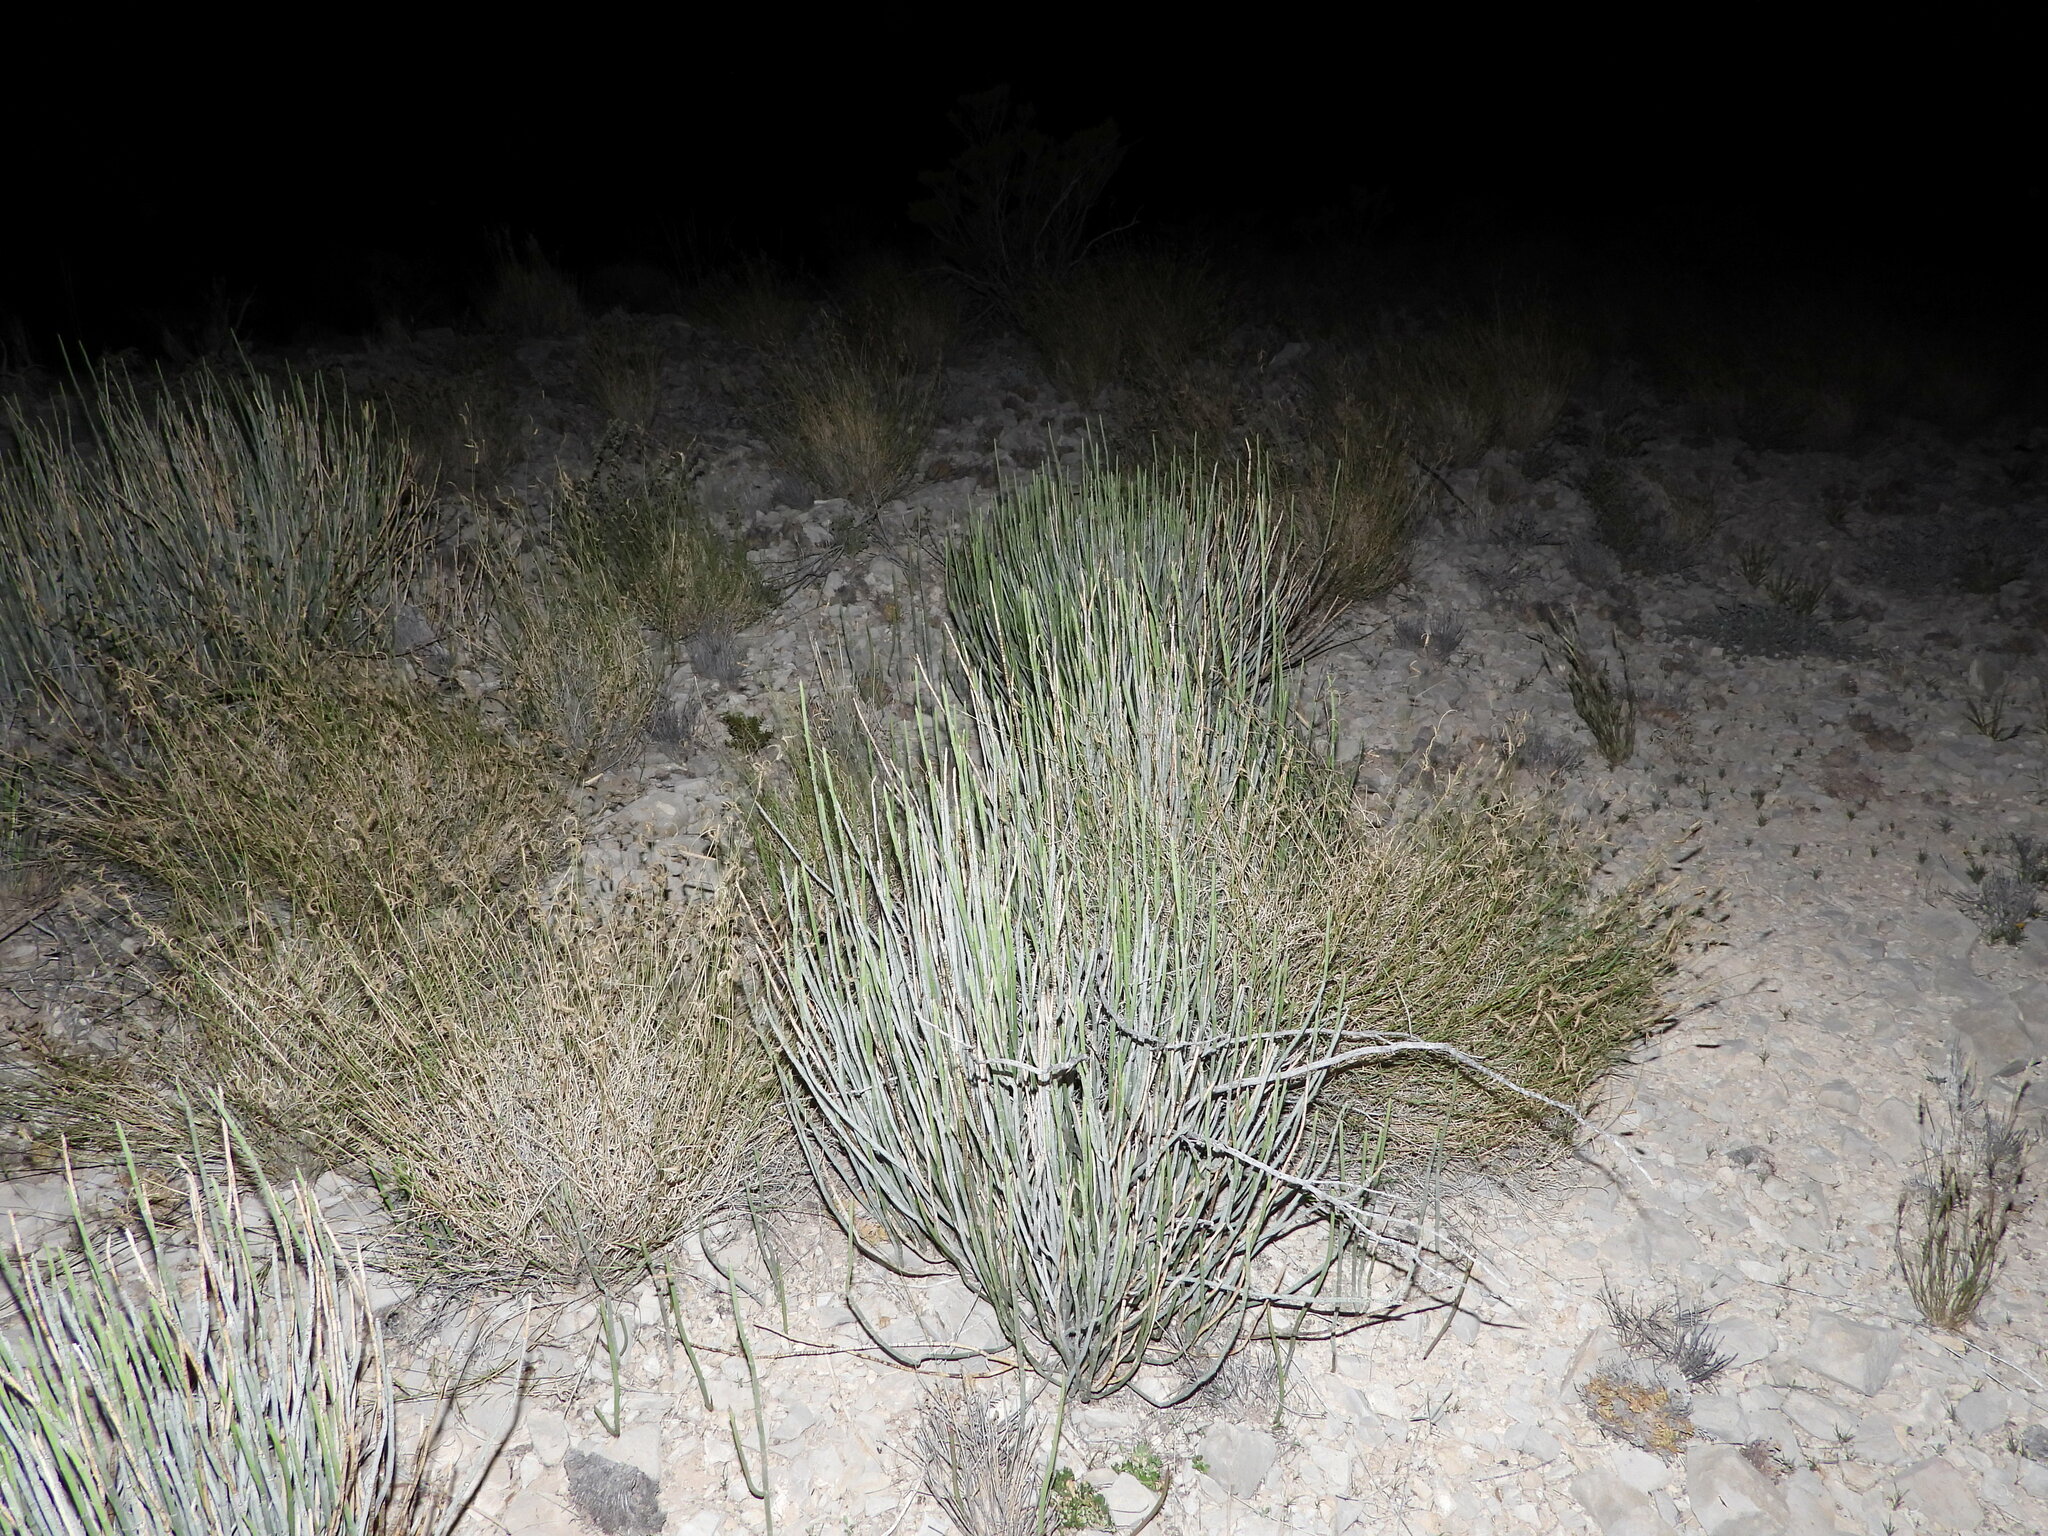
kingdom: Plantae
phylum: Tracheophyta
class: Magnoliopsida
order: Malpighiales
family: Euphorbiaceae
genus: Euphorbia
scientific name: Euphorbia antisyphilitica
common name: Candelilla
